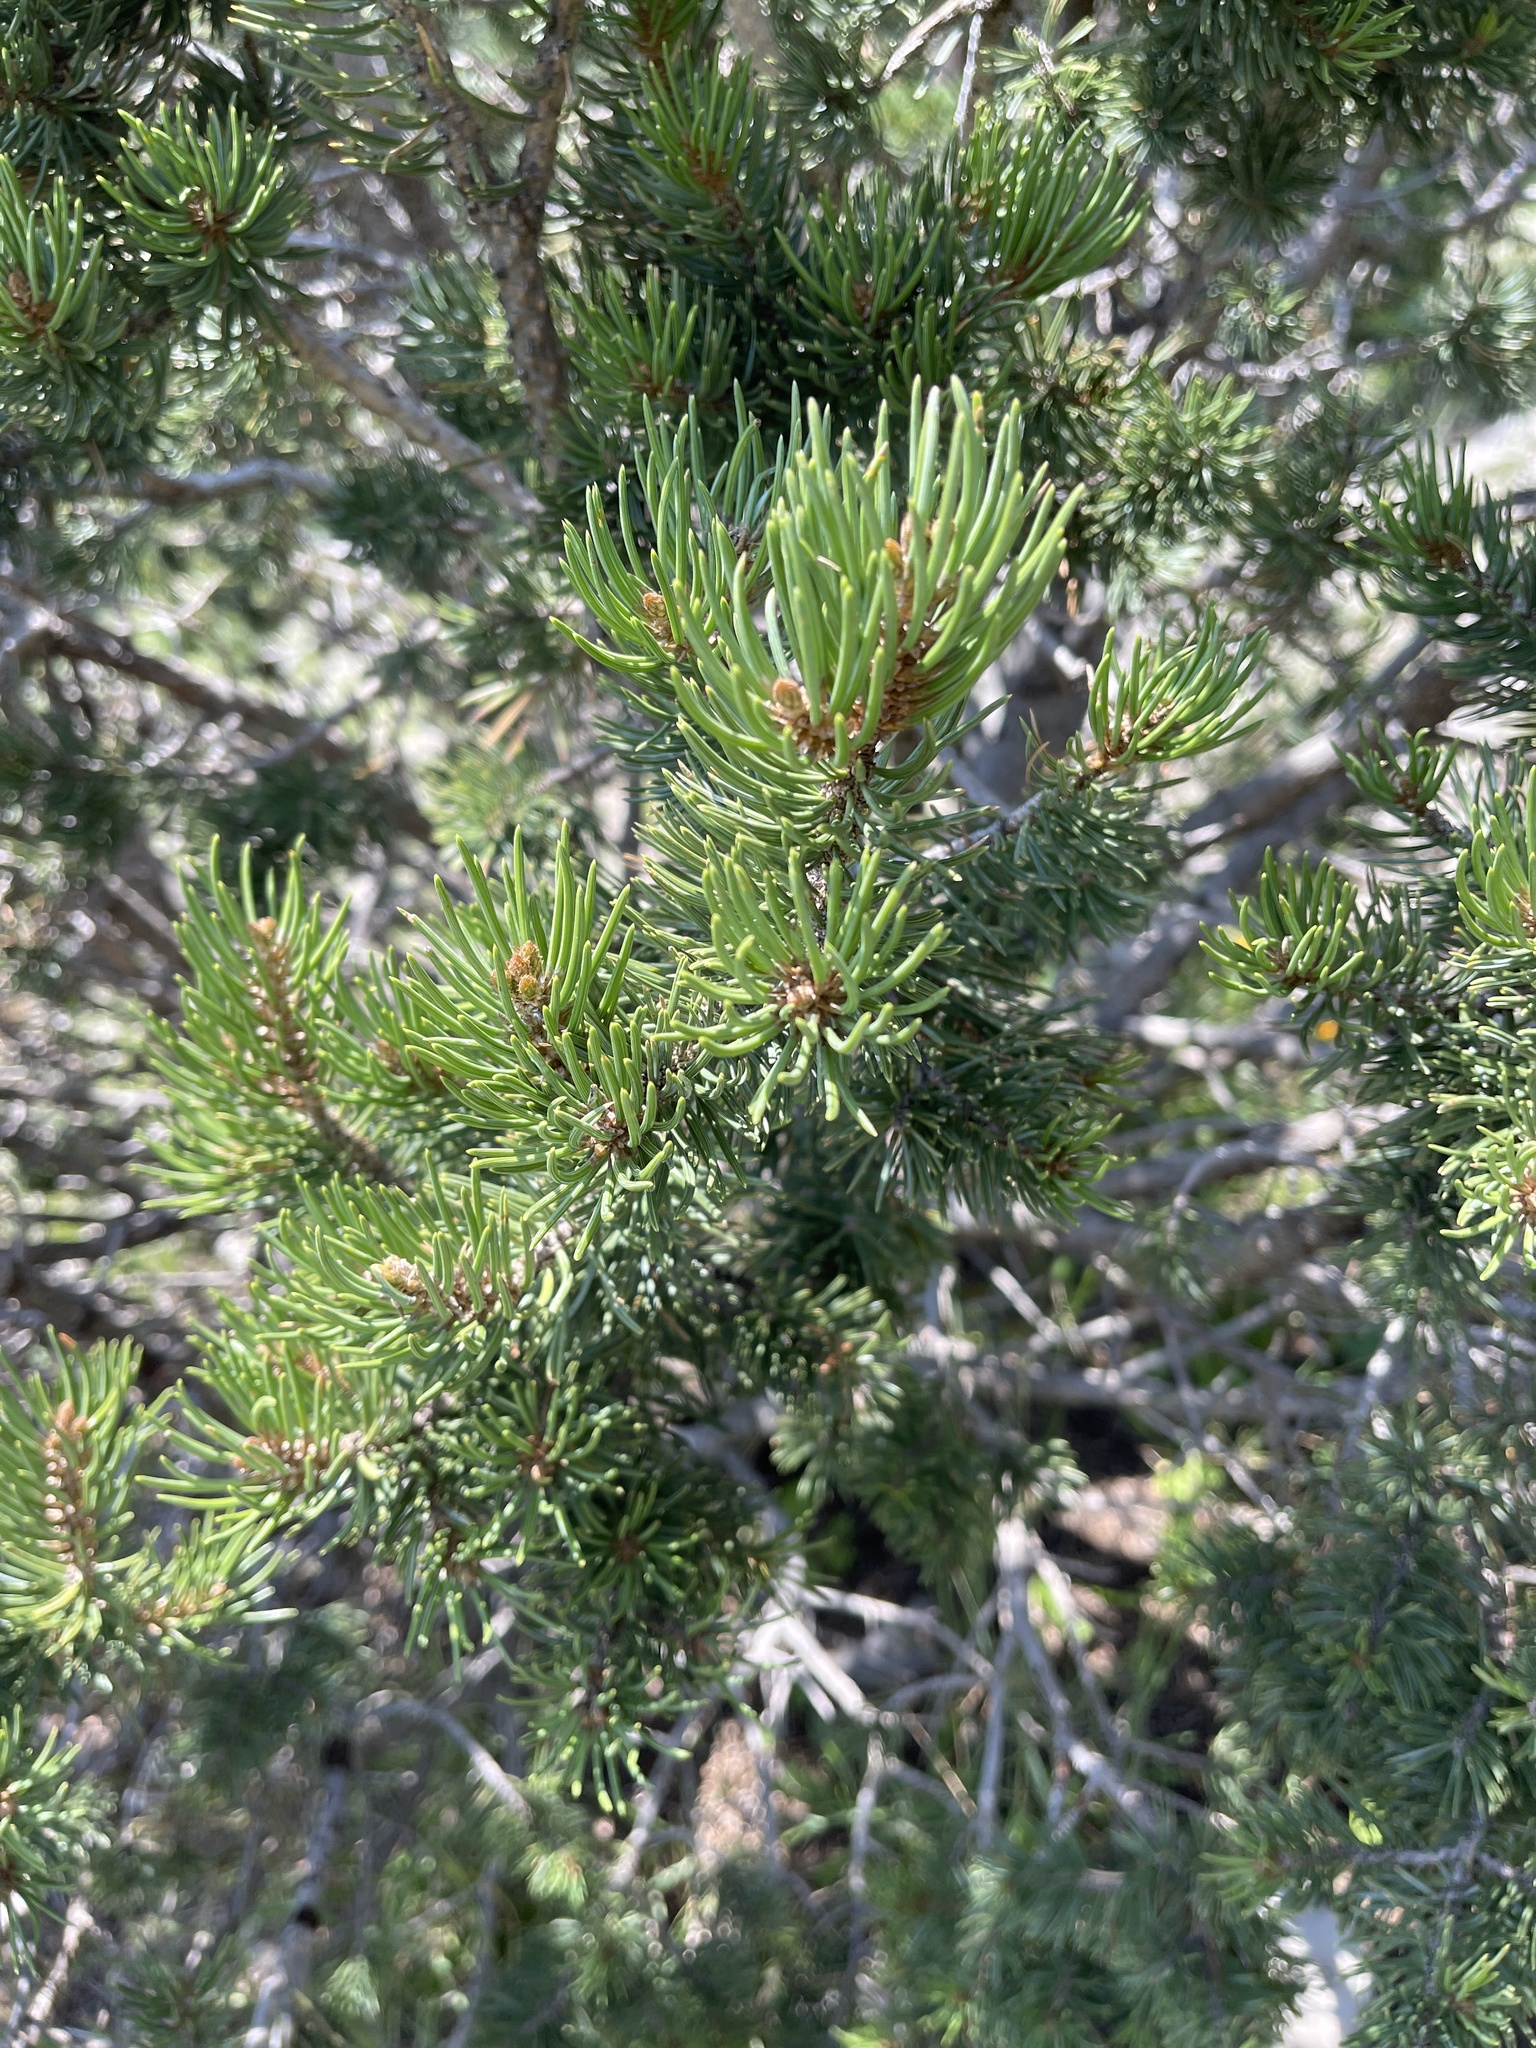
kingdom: Plantae
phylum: Tracheophyta
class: Pinopsida
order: Pinales
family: Pinaceae
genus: Pinus
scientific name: Pinus edulis
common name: Colorado pinyon
